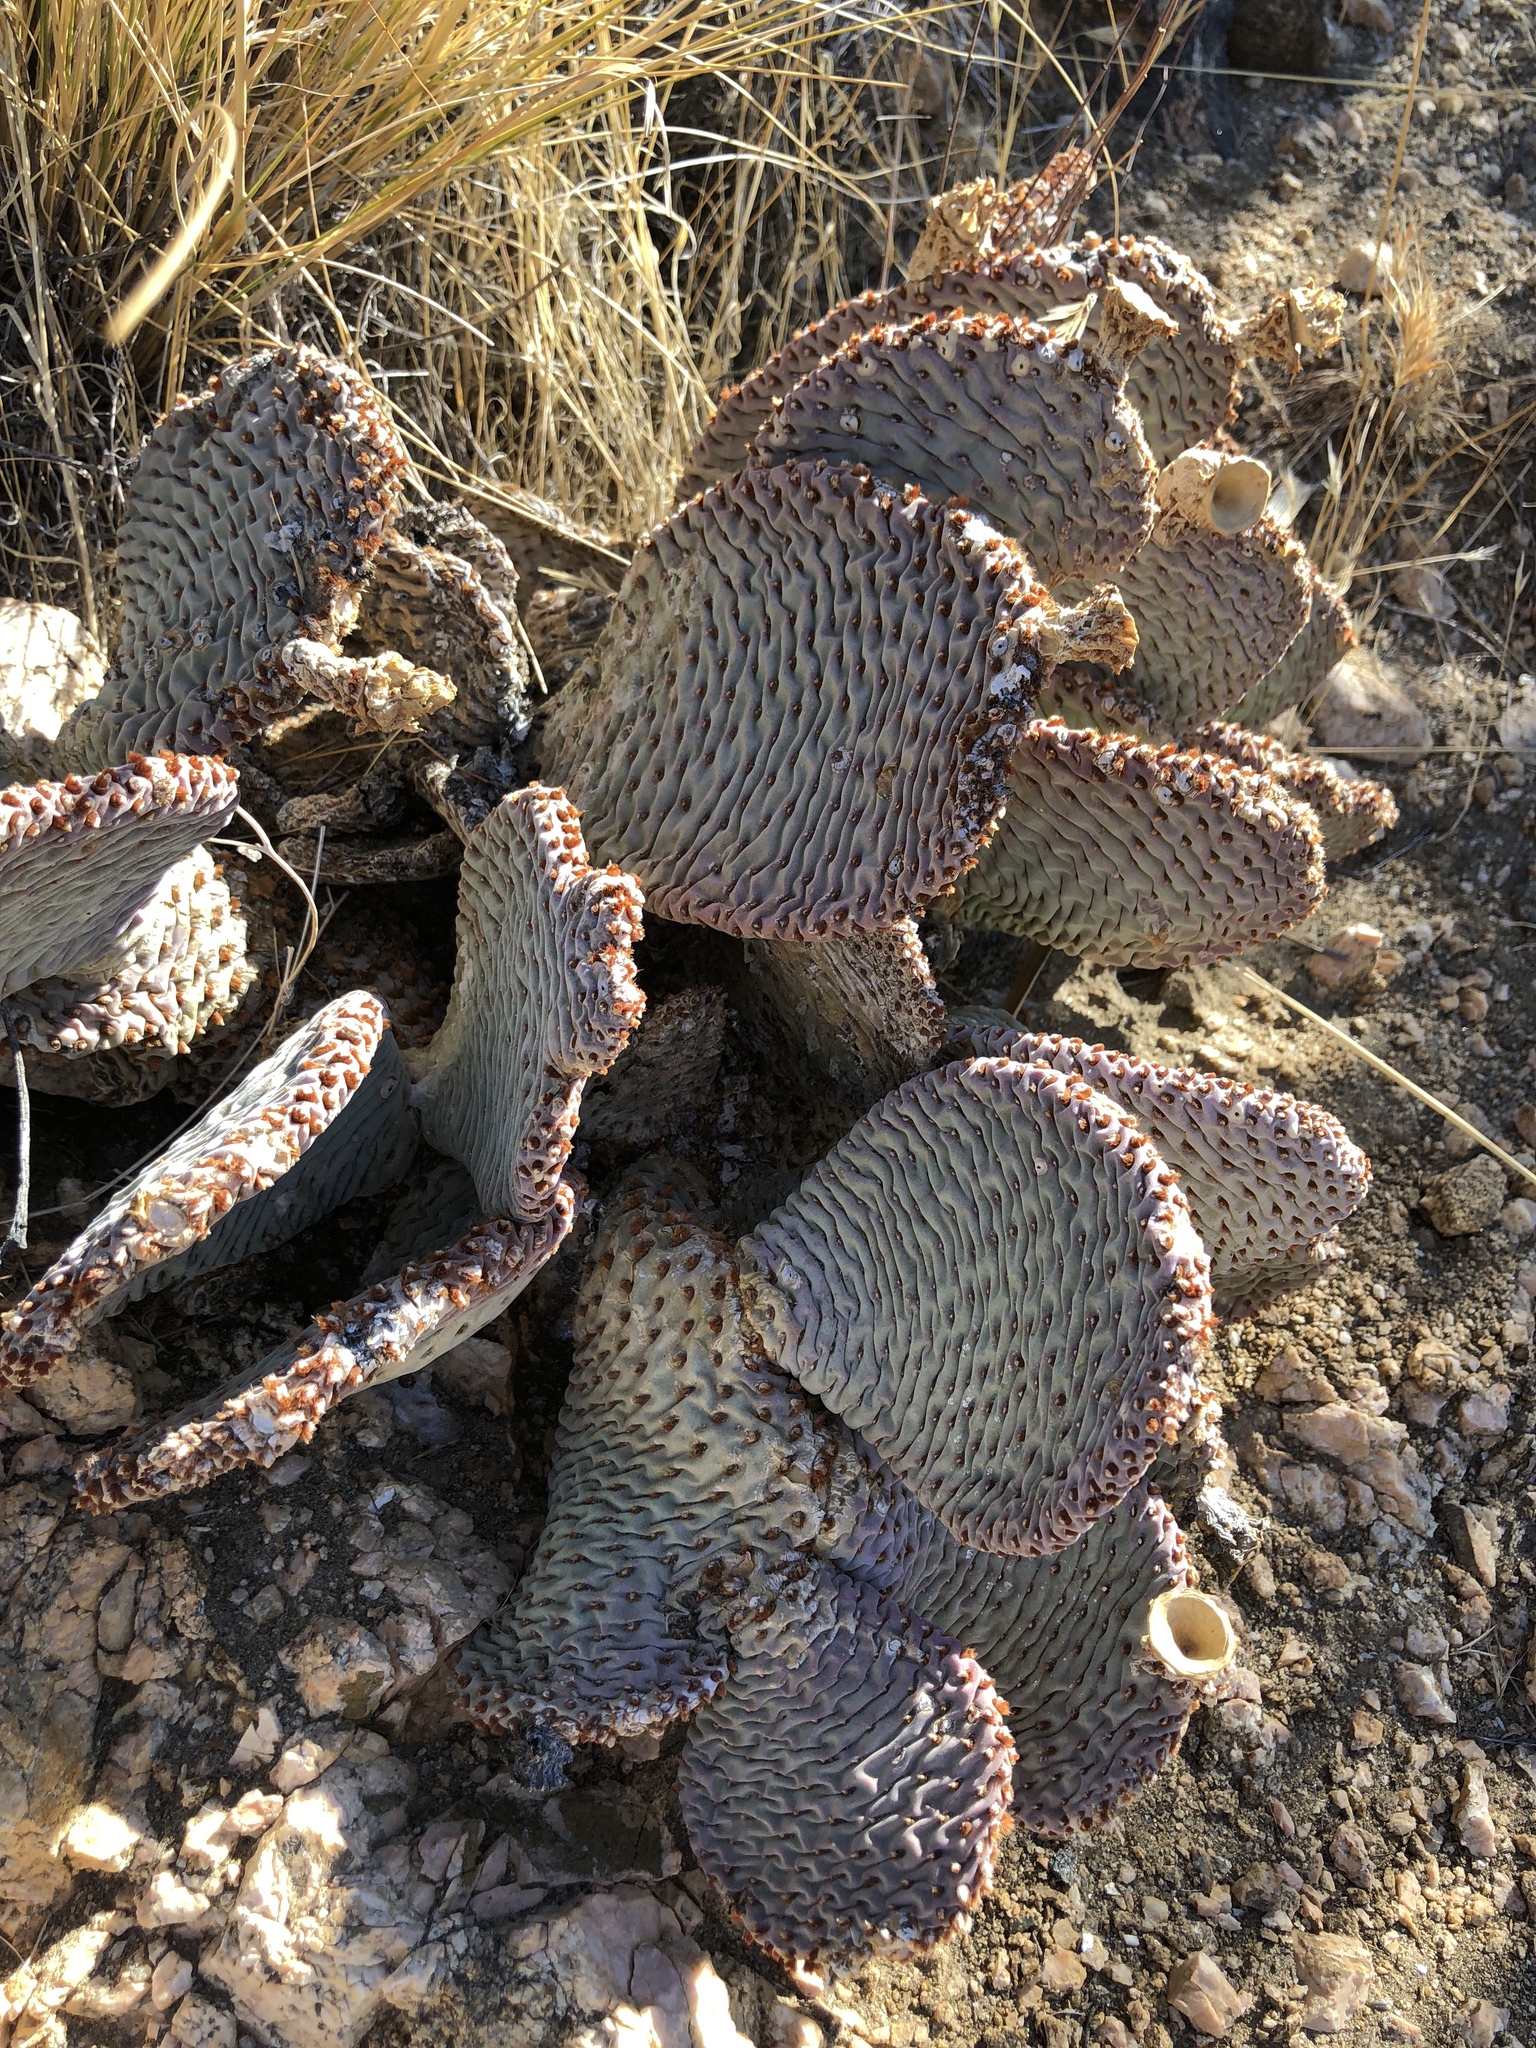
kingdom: Plantae
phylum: Tracheophyta
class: Magnoliopsida
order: Caryophyllales
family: Cactaceae
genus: Opuntia
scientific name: Opuntia basilaris
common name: Beavertail prickly-pear
